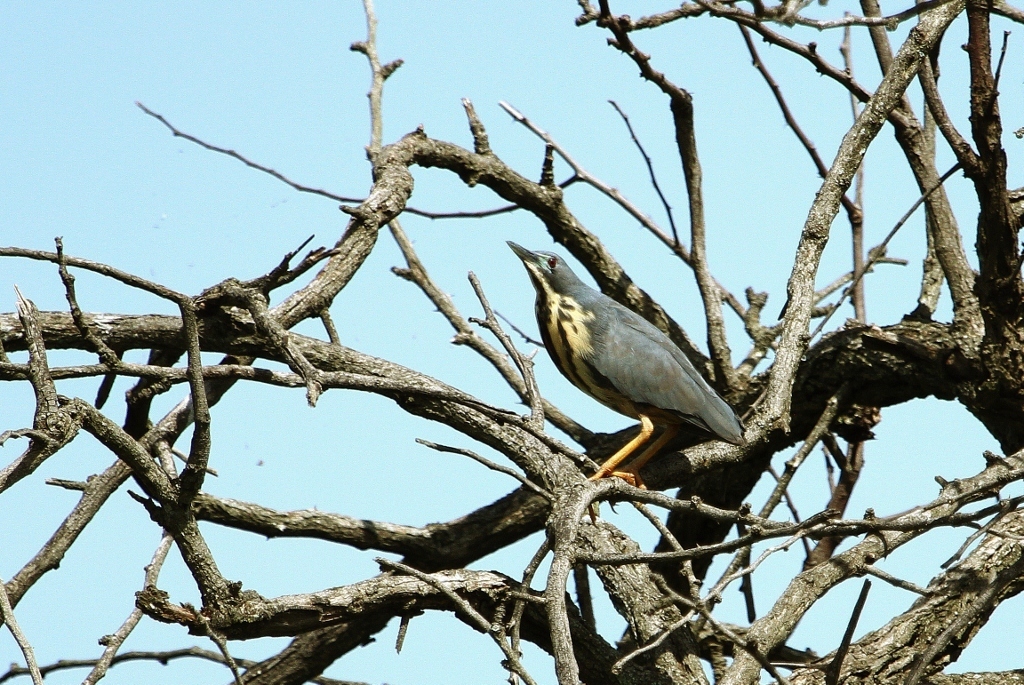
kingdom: Animalia
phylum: Chordata
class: Aves
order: Pelecaniformes
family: Ardeidae
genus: Ixobrychus
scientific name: Ixobrychus sturmii
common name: Dwarf bittern
